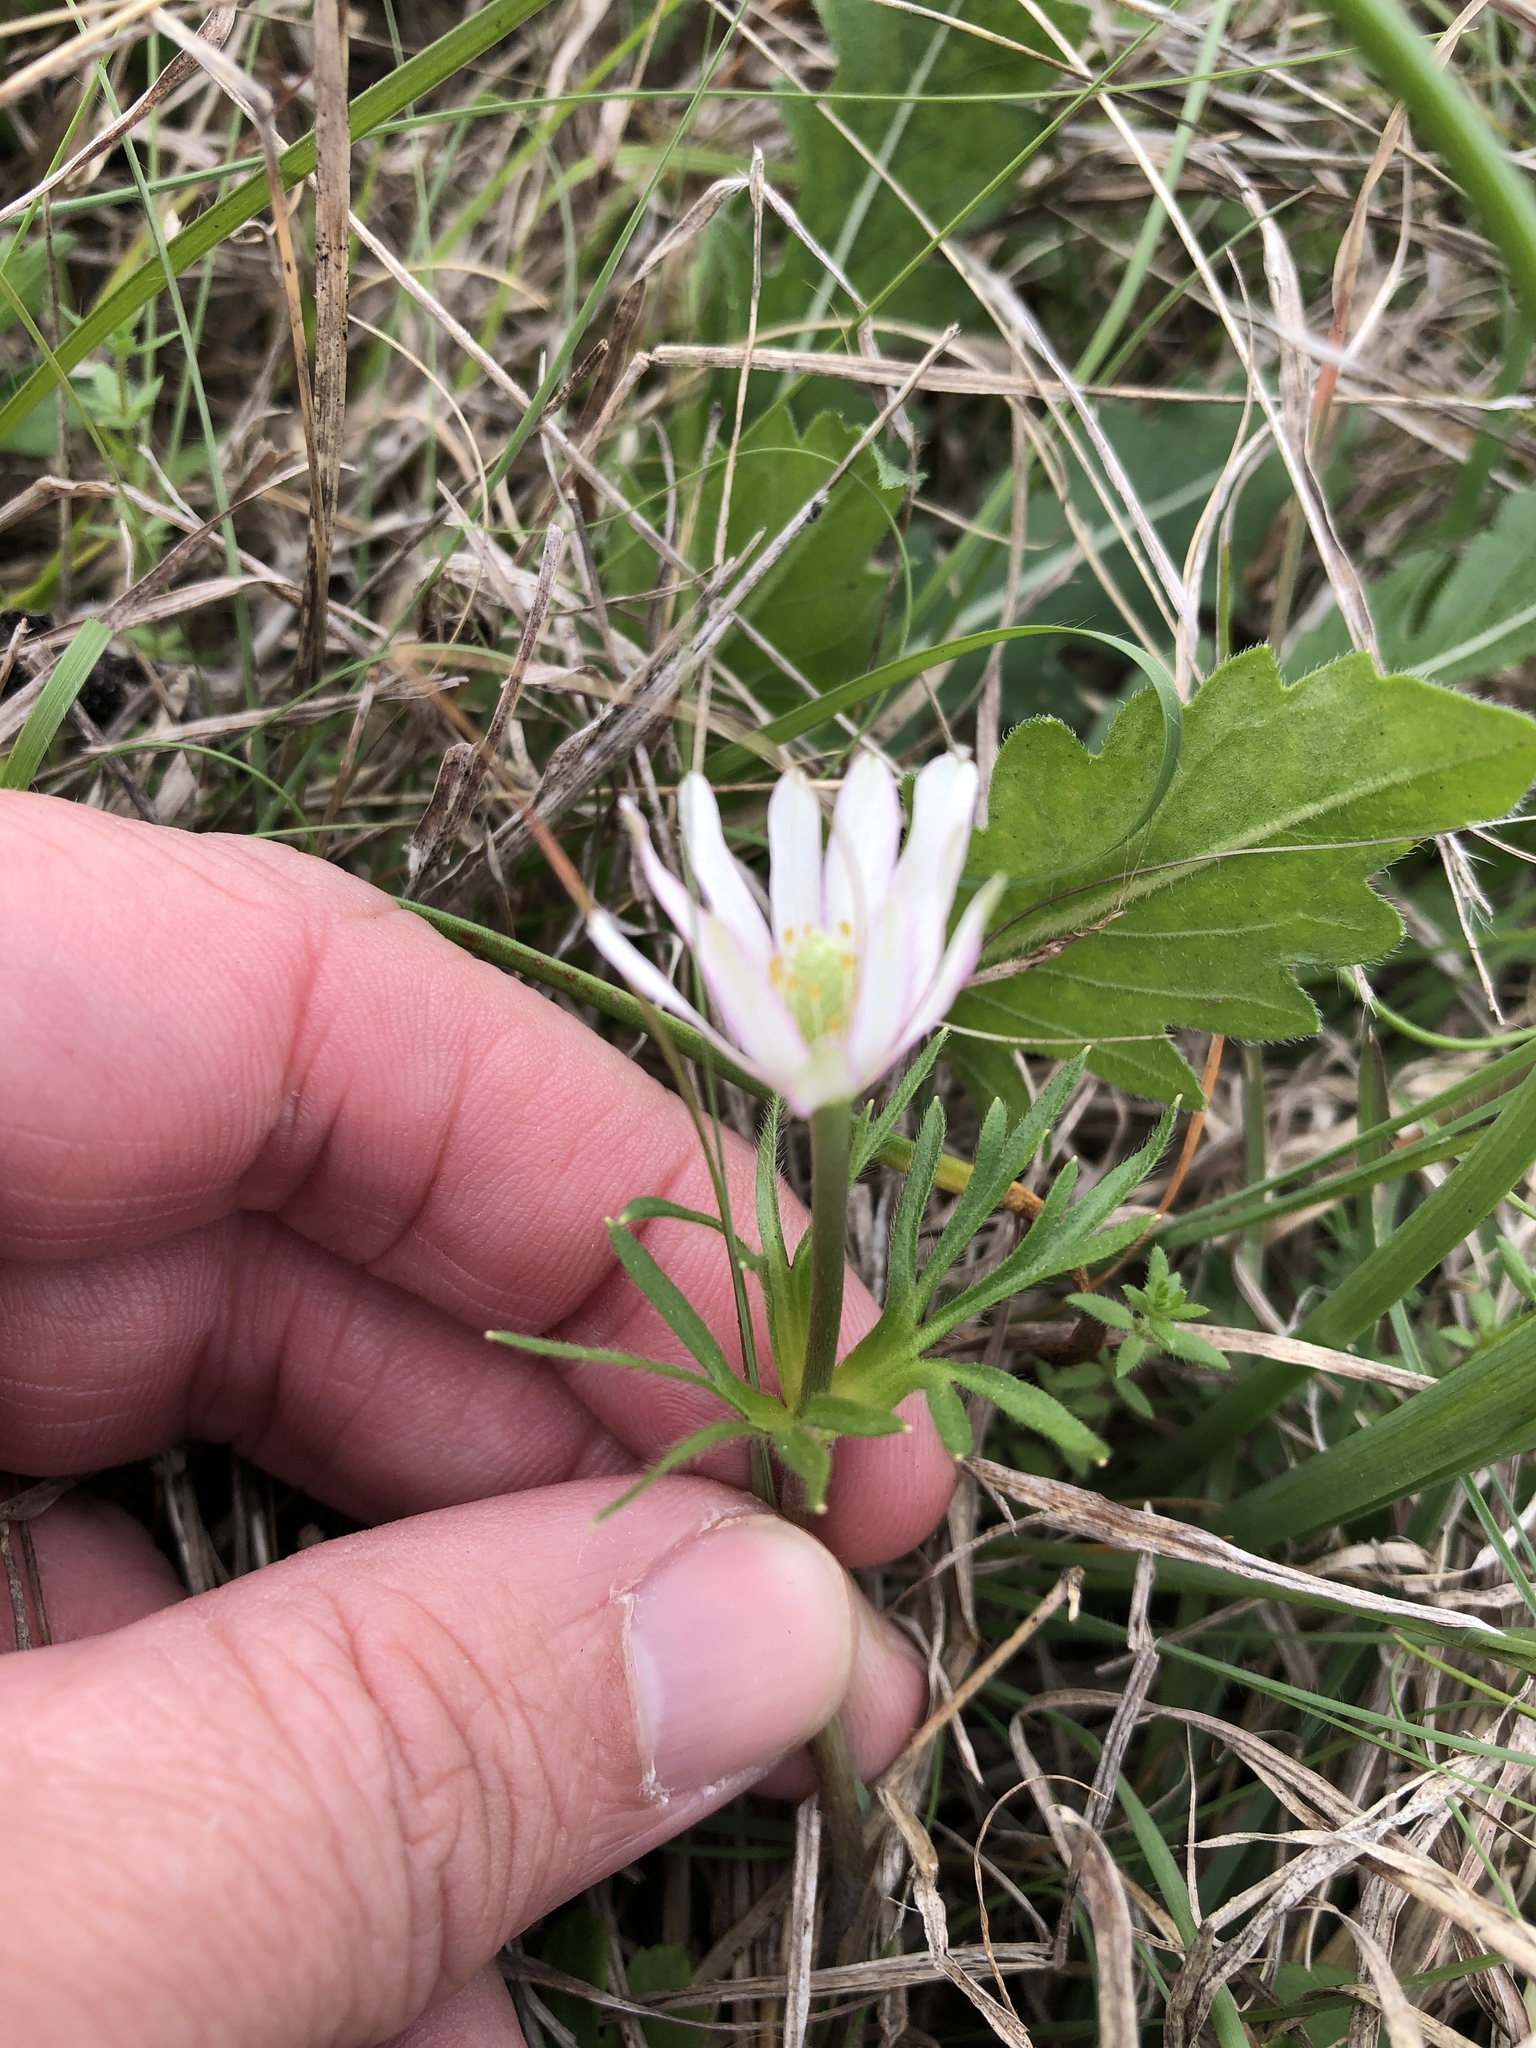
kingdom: Plantae
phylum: Tracheophyta
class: Magnoliopsida
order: Ranunculales
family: Ranunculaceae
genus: Anemone
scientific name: Anemone berlandieri
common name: Ten-petal anemone
